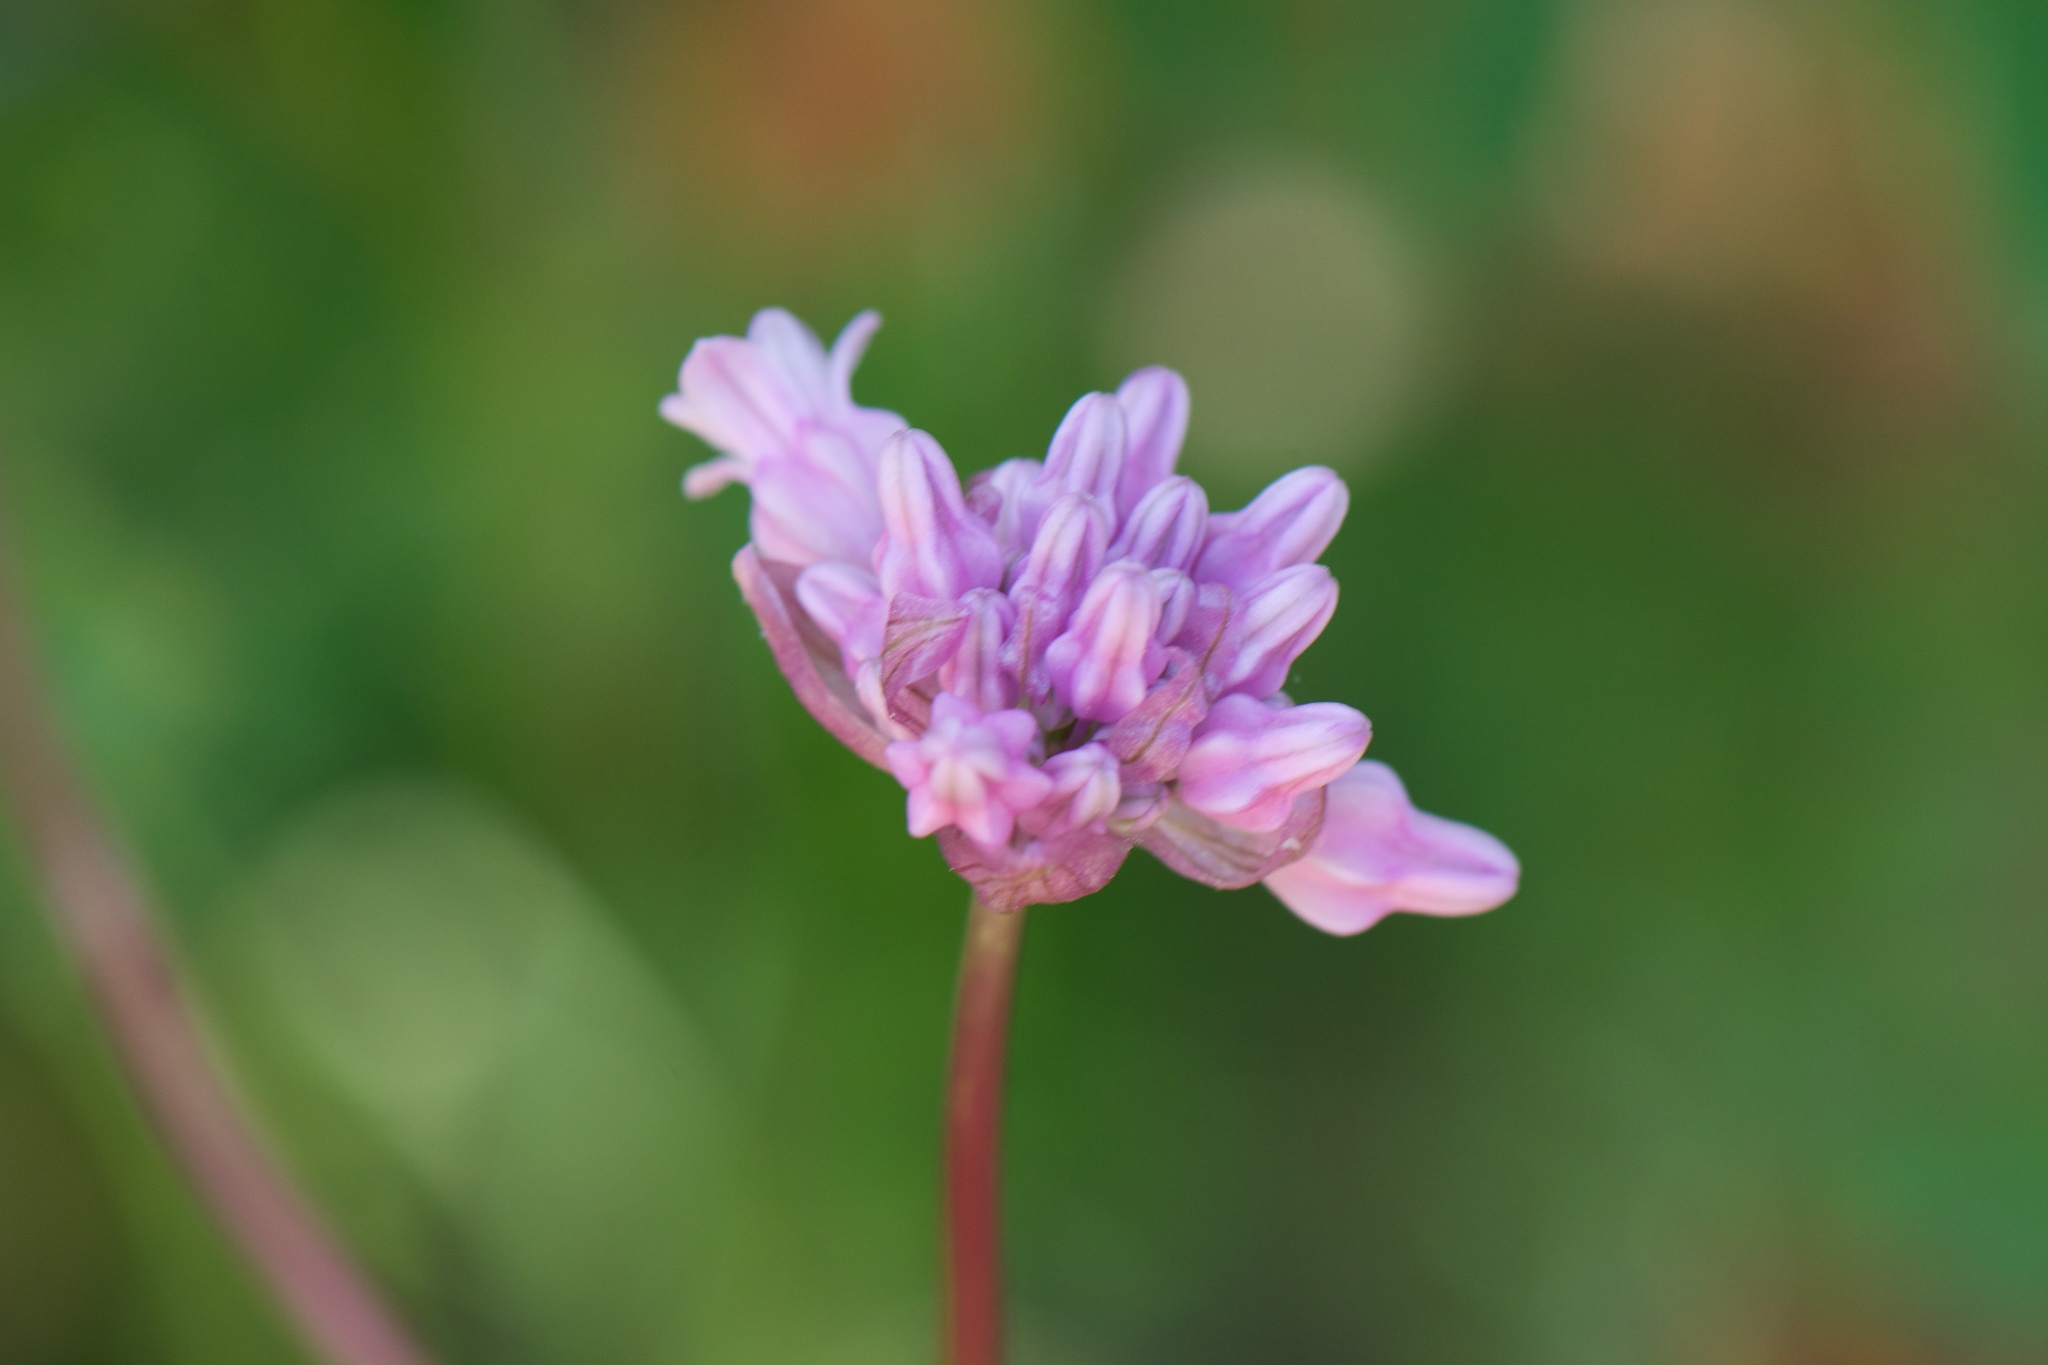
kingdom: Plantae
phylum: Tracheophyta
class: Liliopsida
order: Asparagales
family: Asparagaceae
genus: Dichelostemma
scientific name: Dichelostemma volubile
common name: Trining brodiaea
